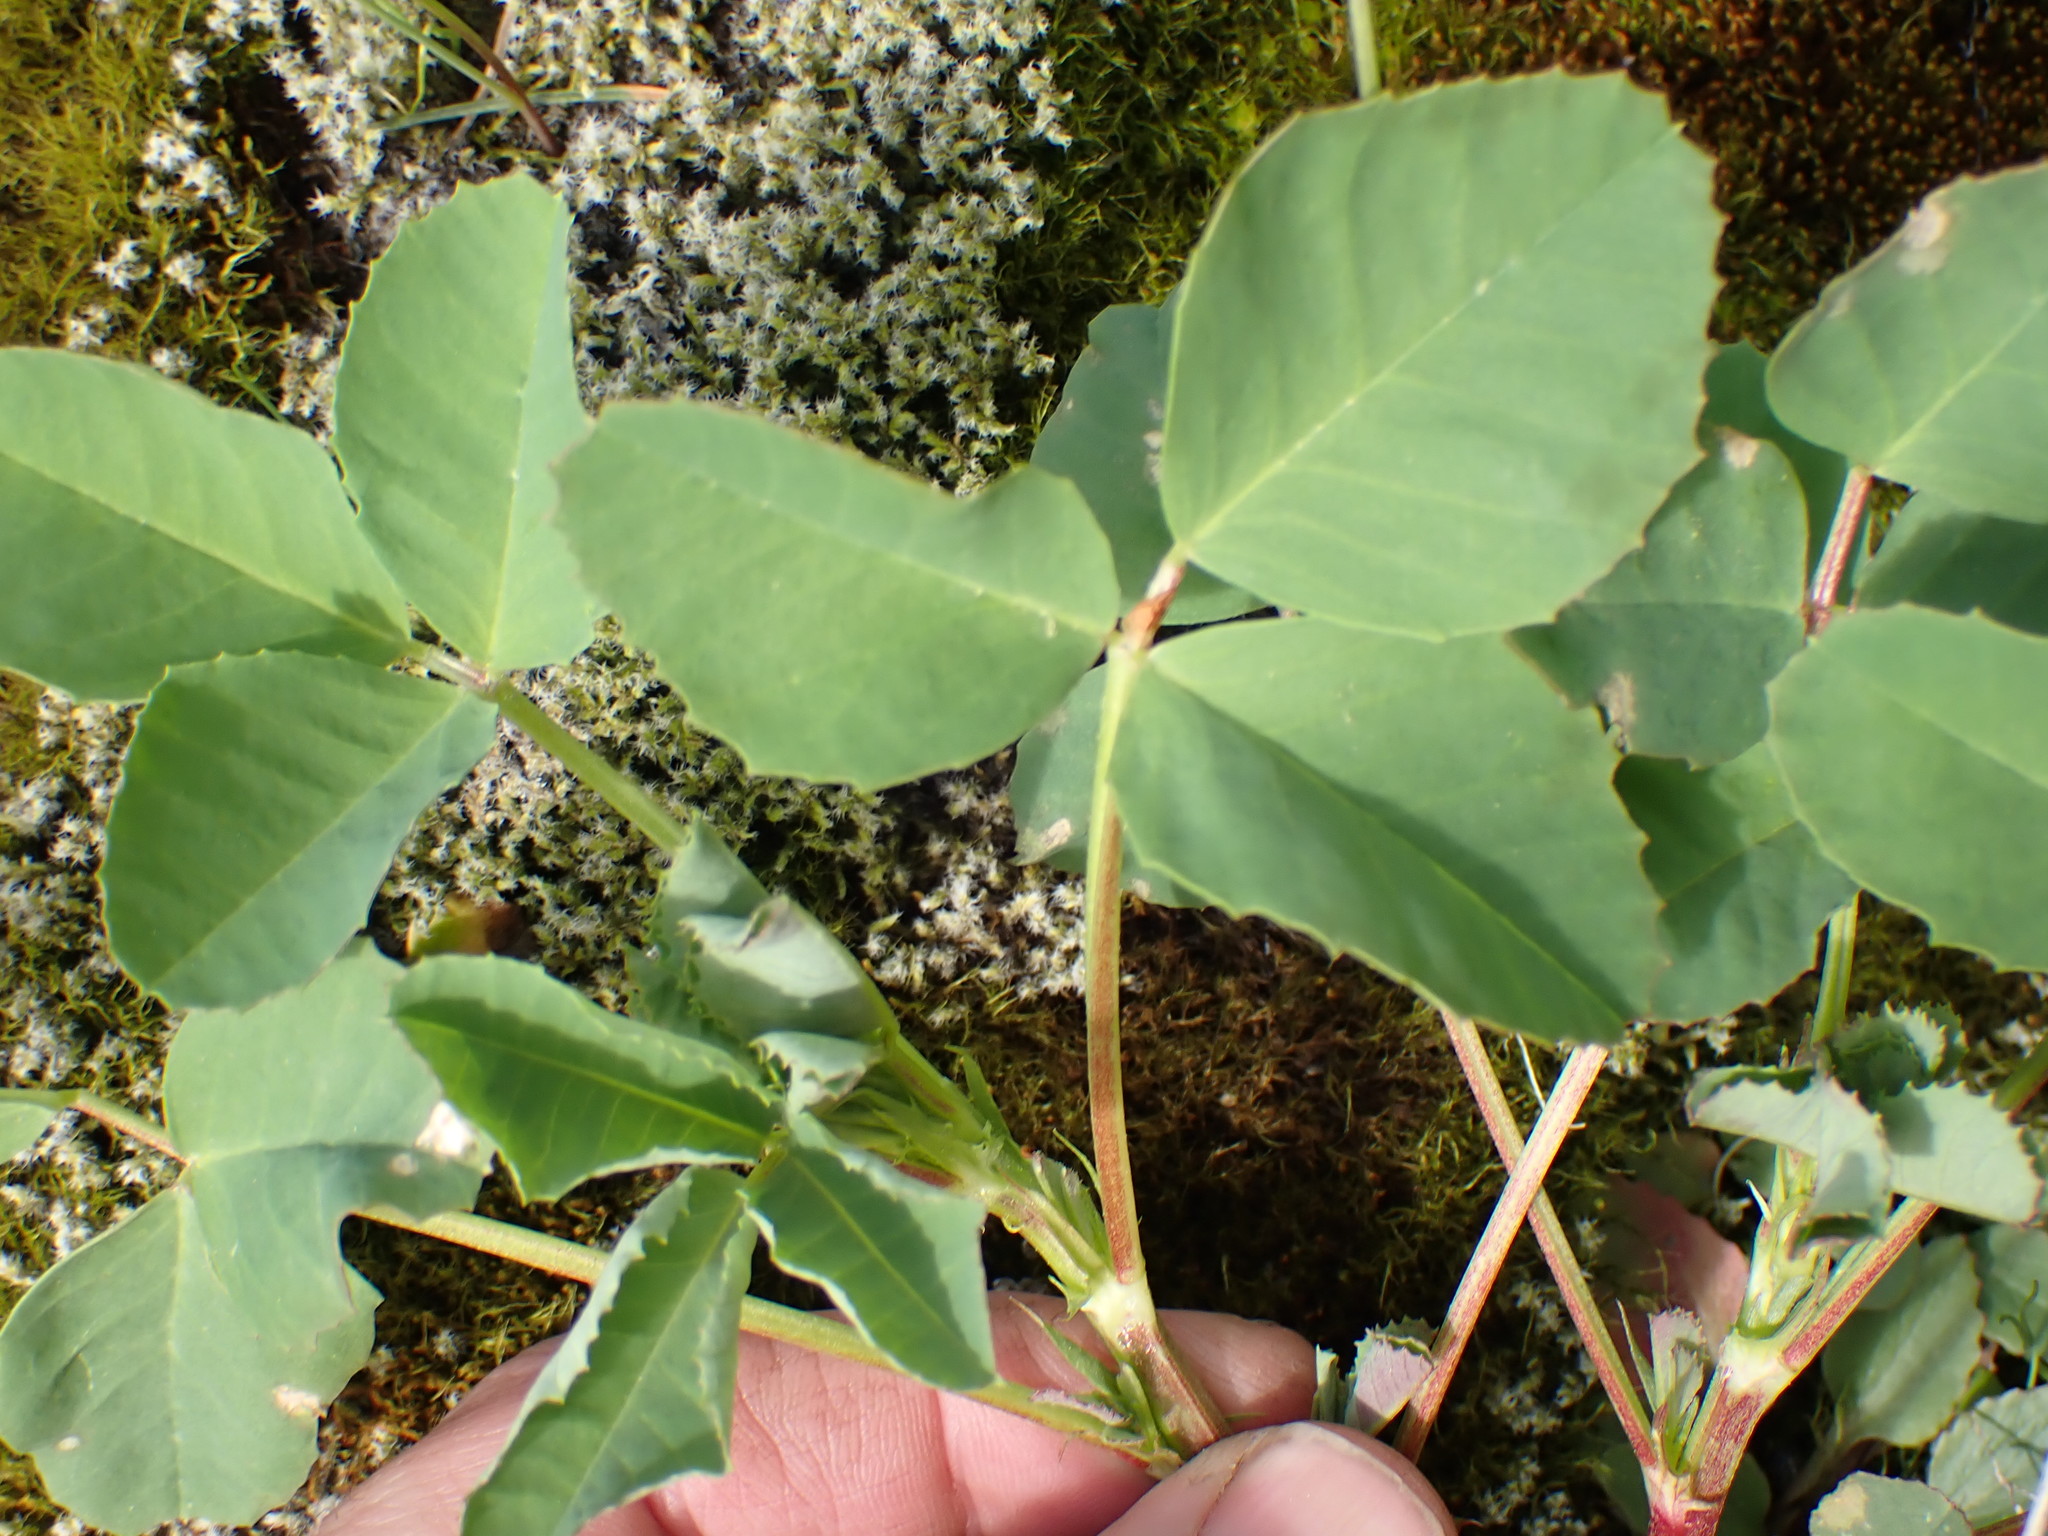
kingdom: Plantae
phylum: Tracheophyta
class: Magnoliopsida
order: Fabales
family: Fabaceae
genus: Melilotus
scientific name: Melilotus
